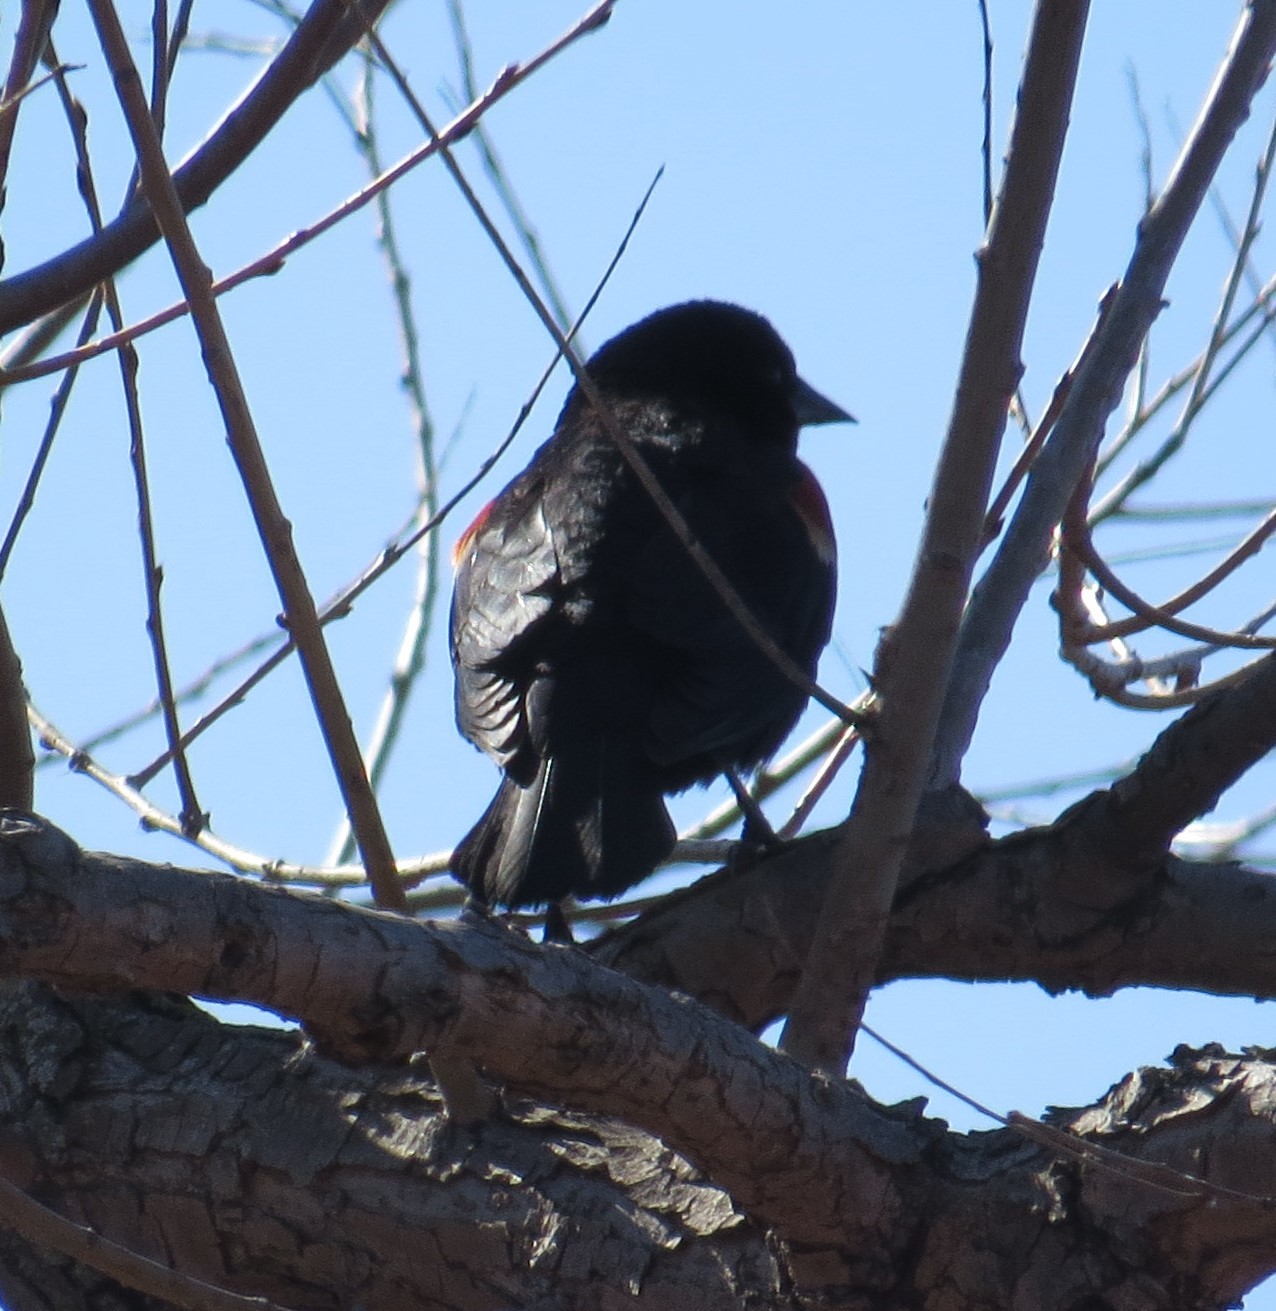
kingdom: Animalia
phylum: Chordata
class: Aves
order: Passeriformes
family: Icteridae
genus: Agelaius
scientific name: Agelaius phoeniceus
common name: Red-winged blackbird
